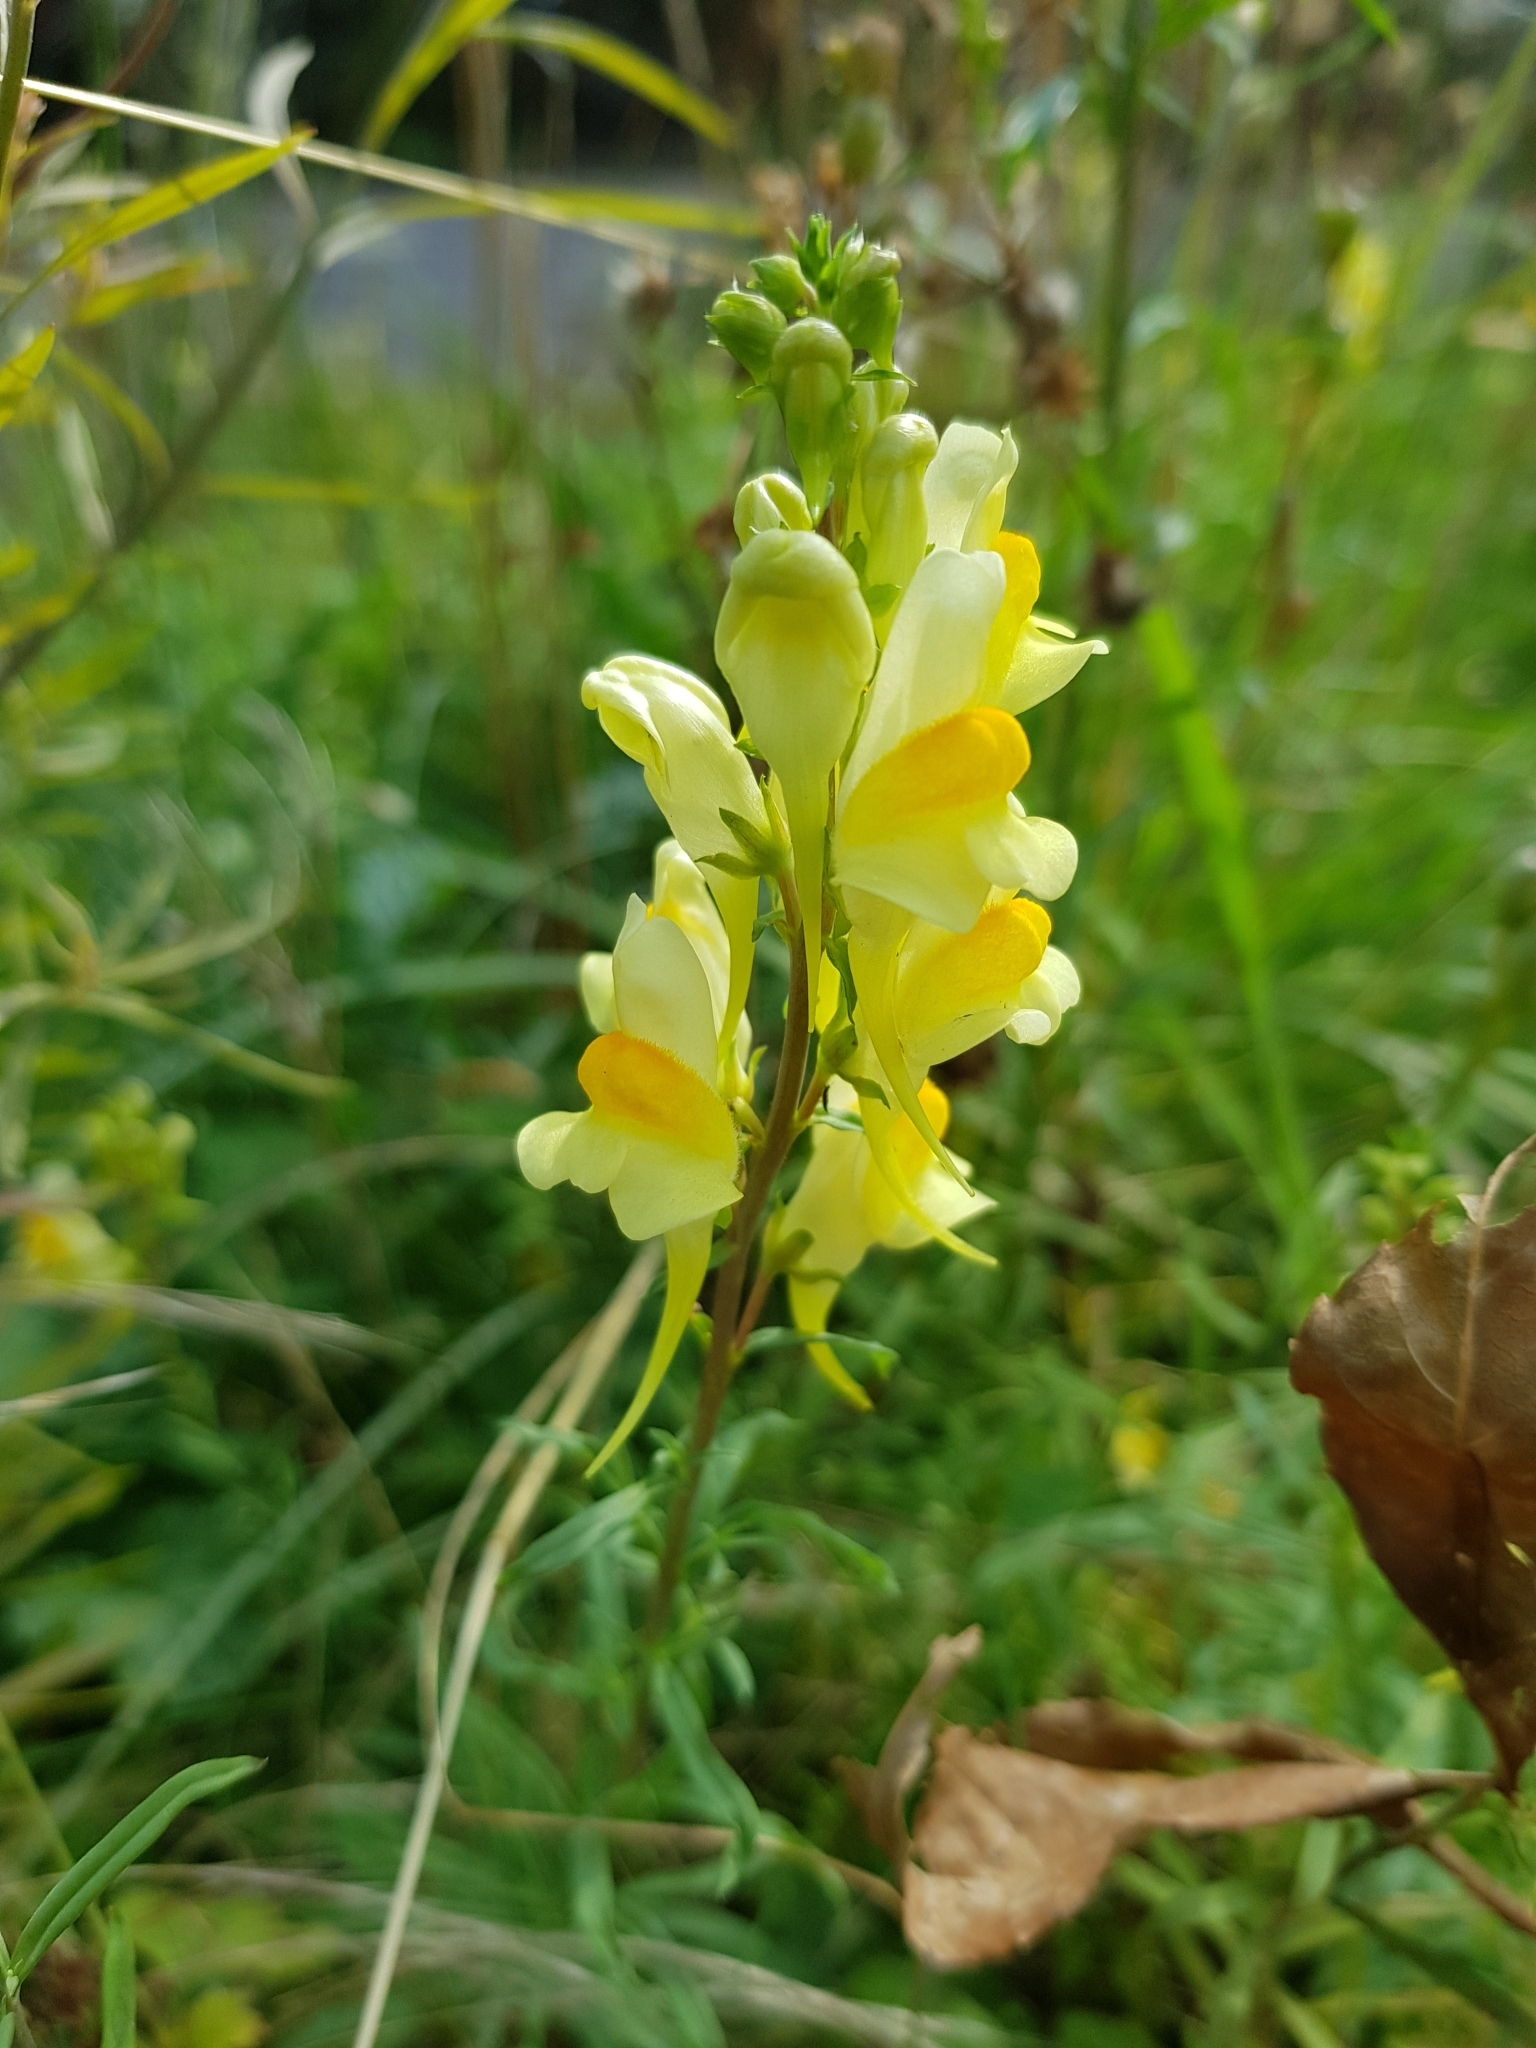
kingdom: Plantae
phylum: Tracheophyta
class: Magnoliopsida
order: Lamiales
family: Plantaginaceae
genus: Linaria
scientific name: Linaria vulgaris
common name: Butter and eggs
